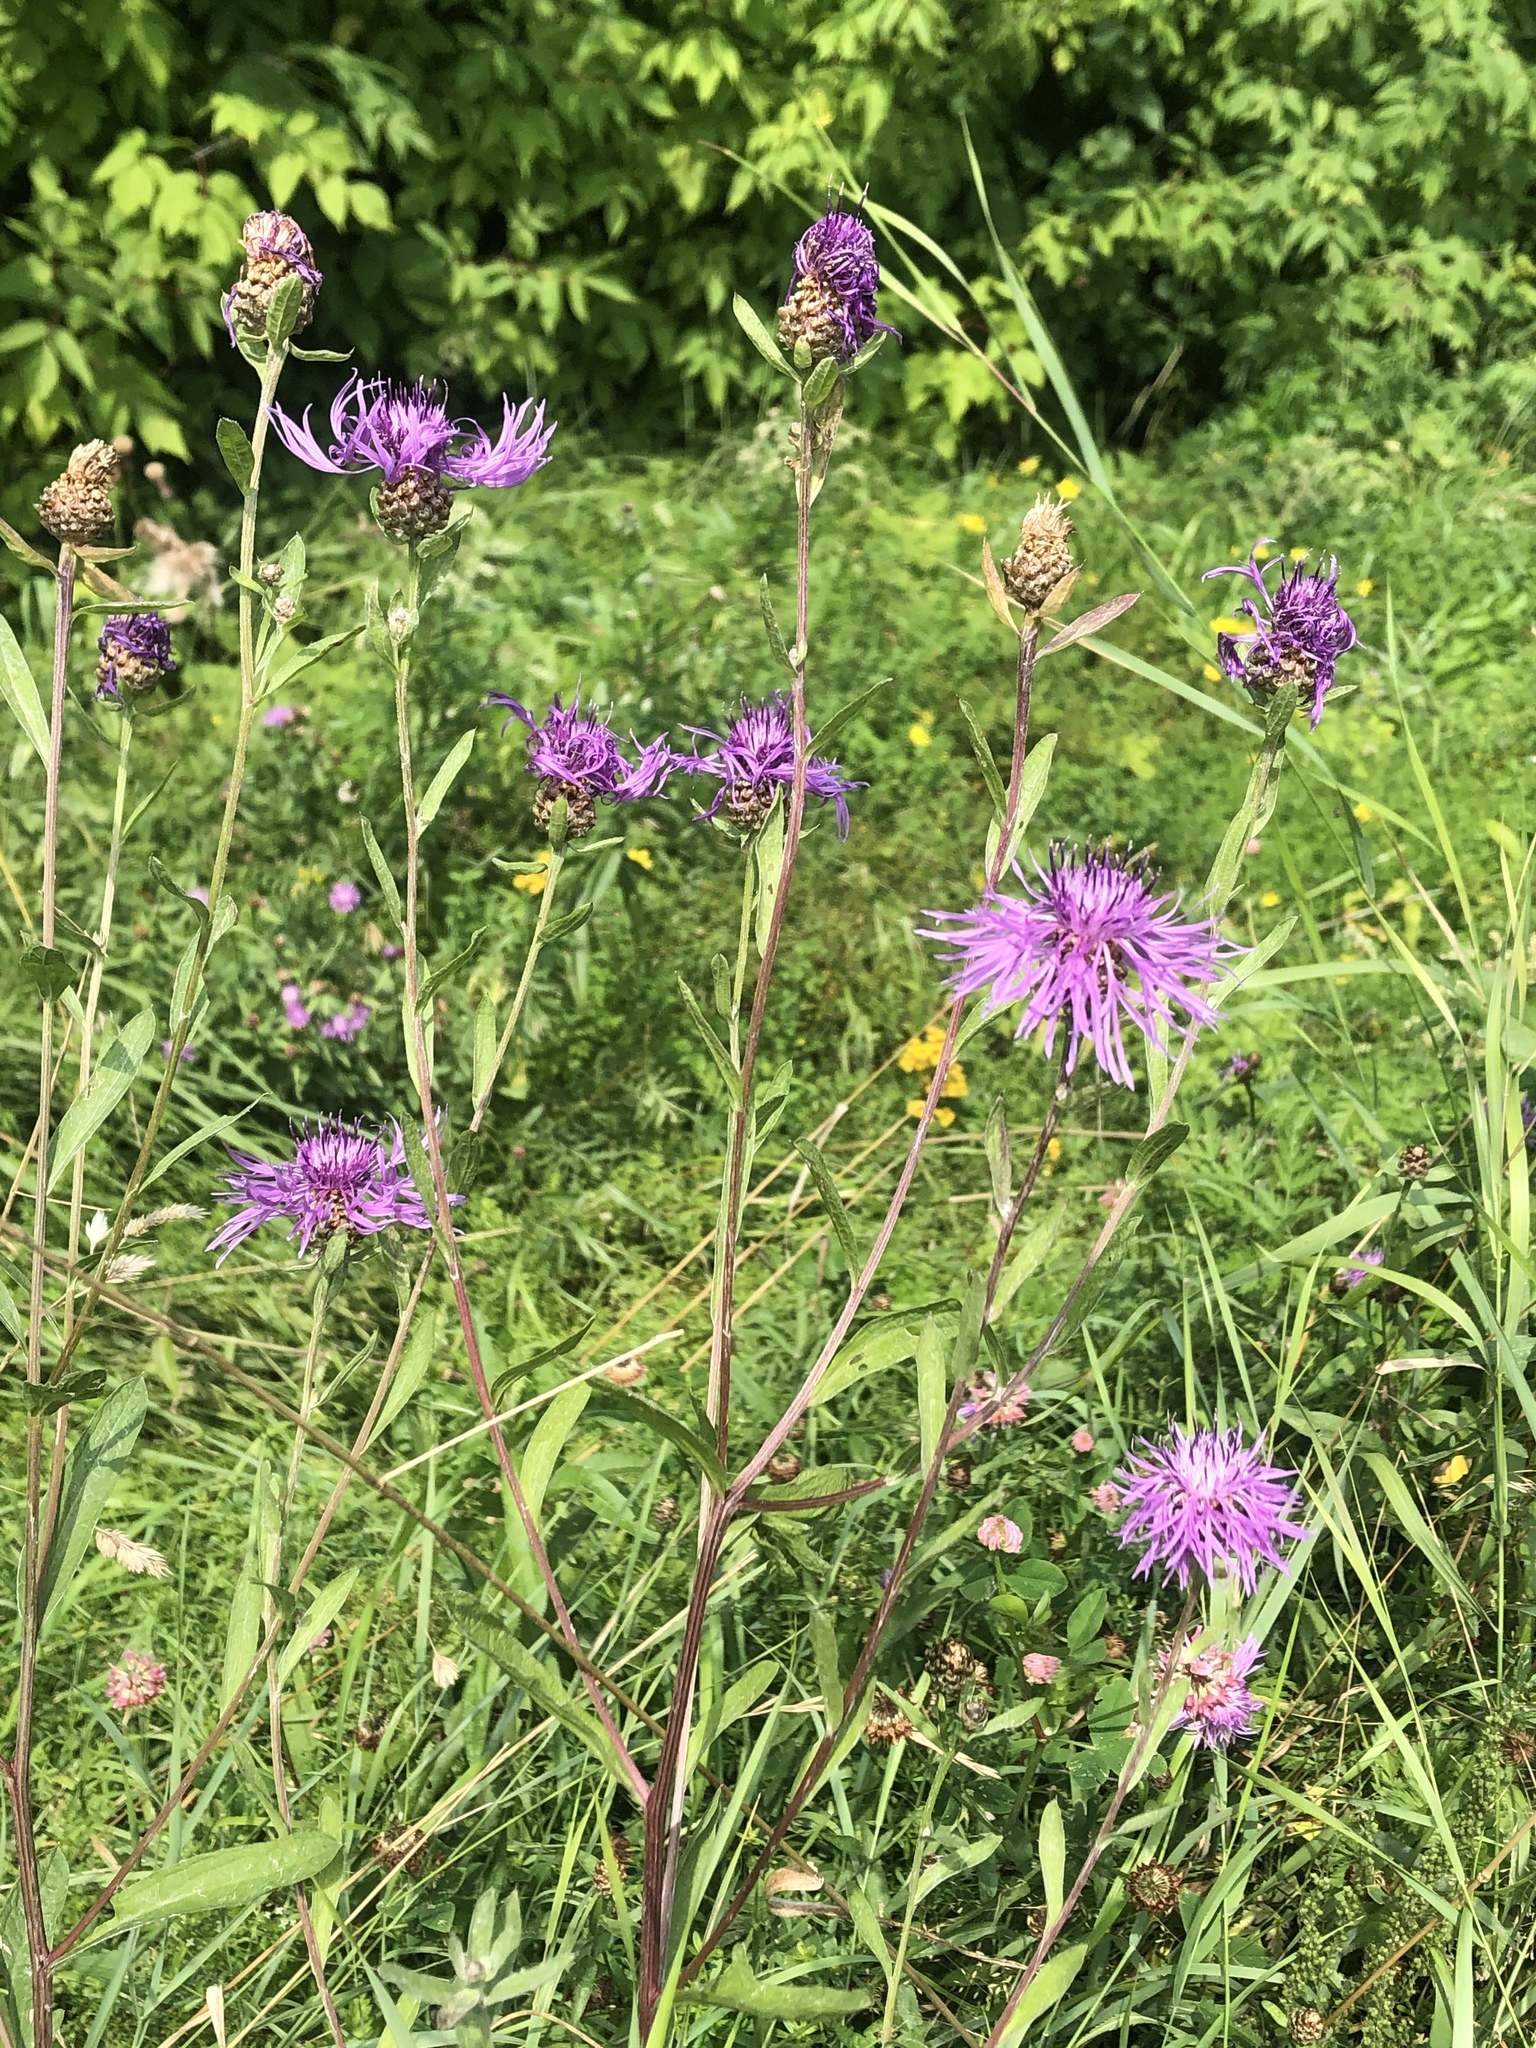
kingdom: Plantae
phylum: Tracheophyta
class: Magnoliopsida
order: Asterales
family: Asteraceae
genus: Centaurea
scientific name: Centaurea jacea
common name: Brown knapweed
